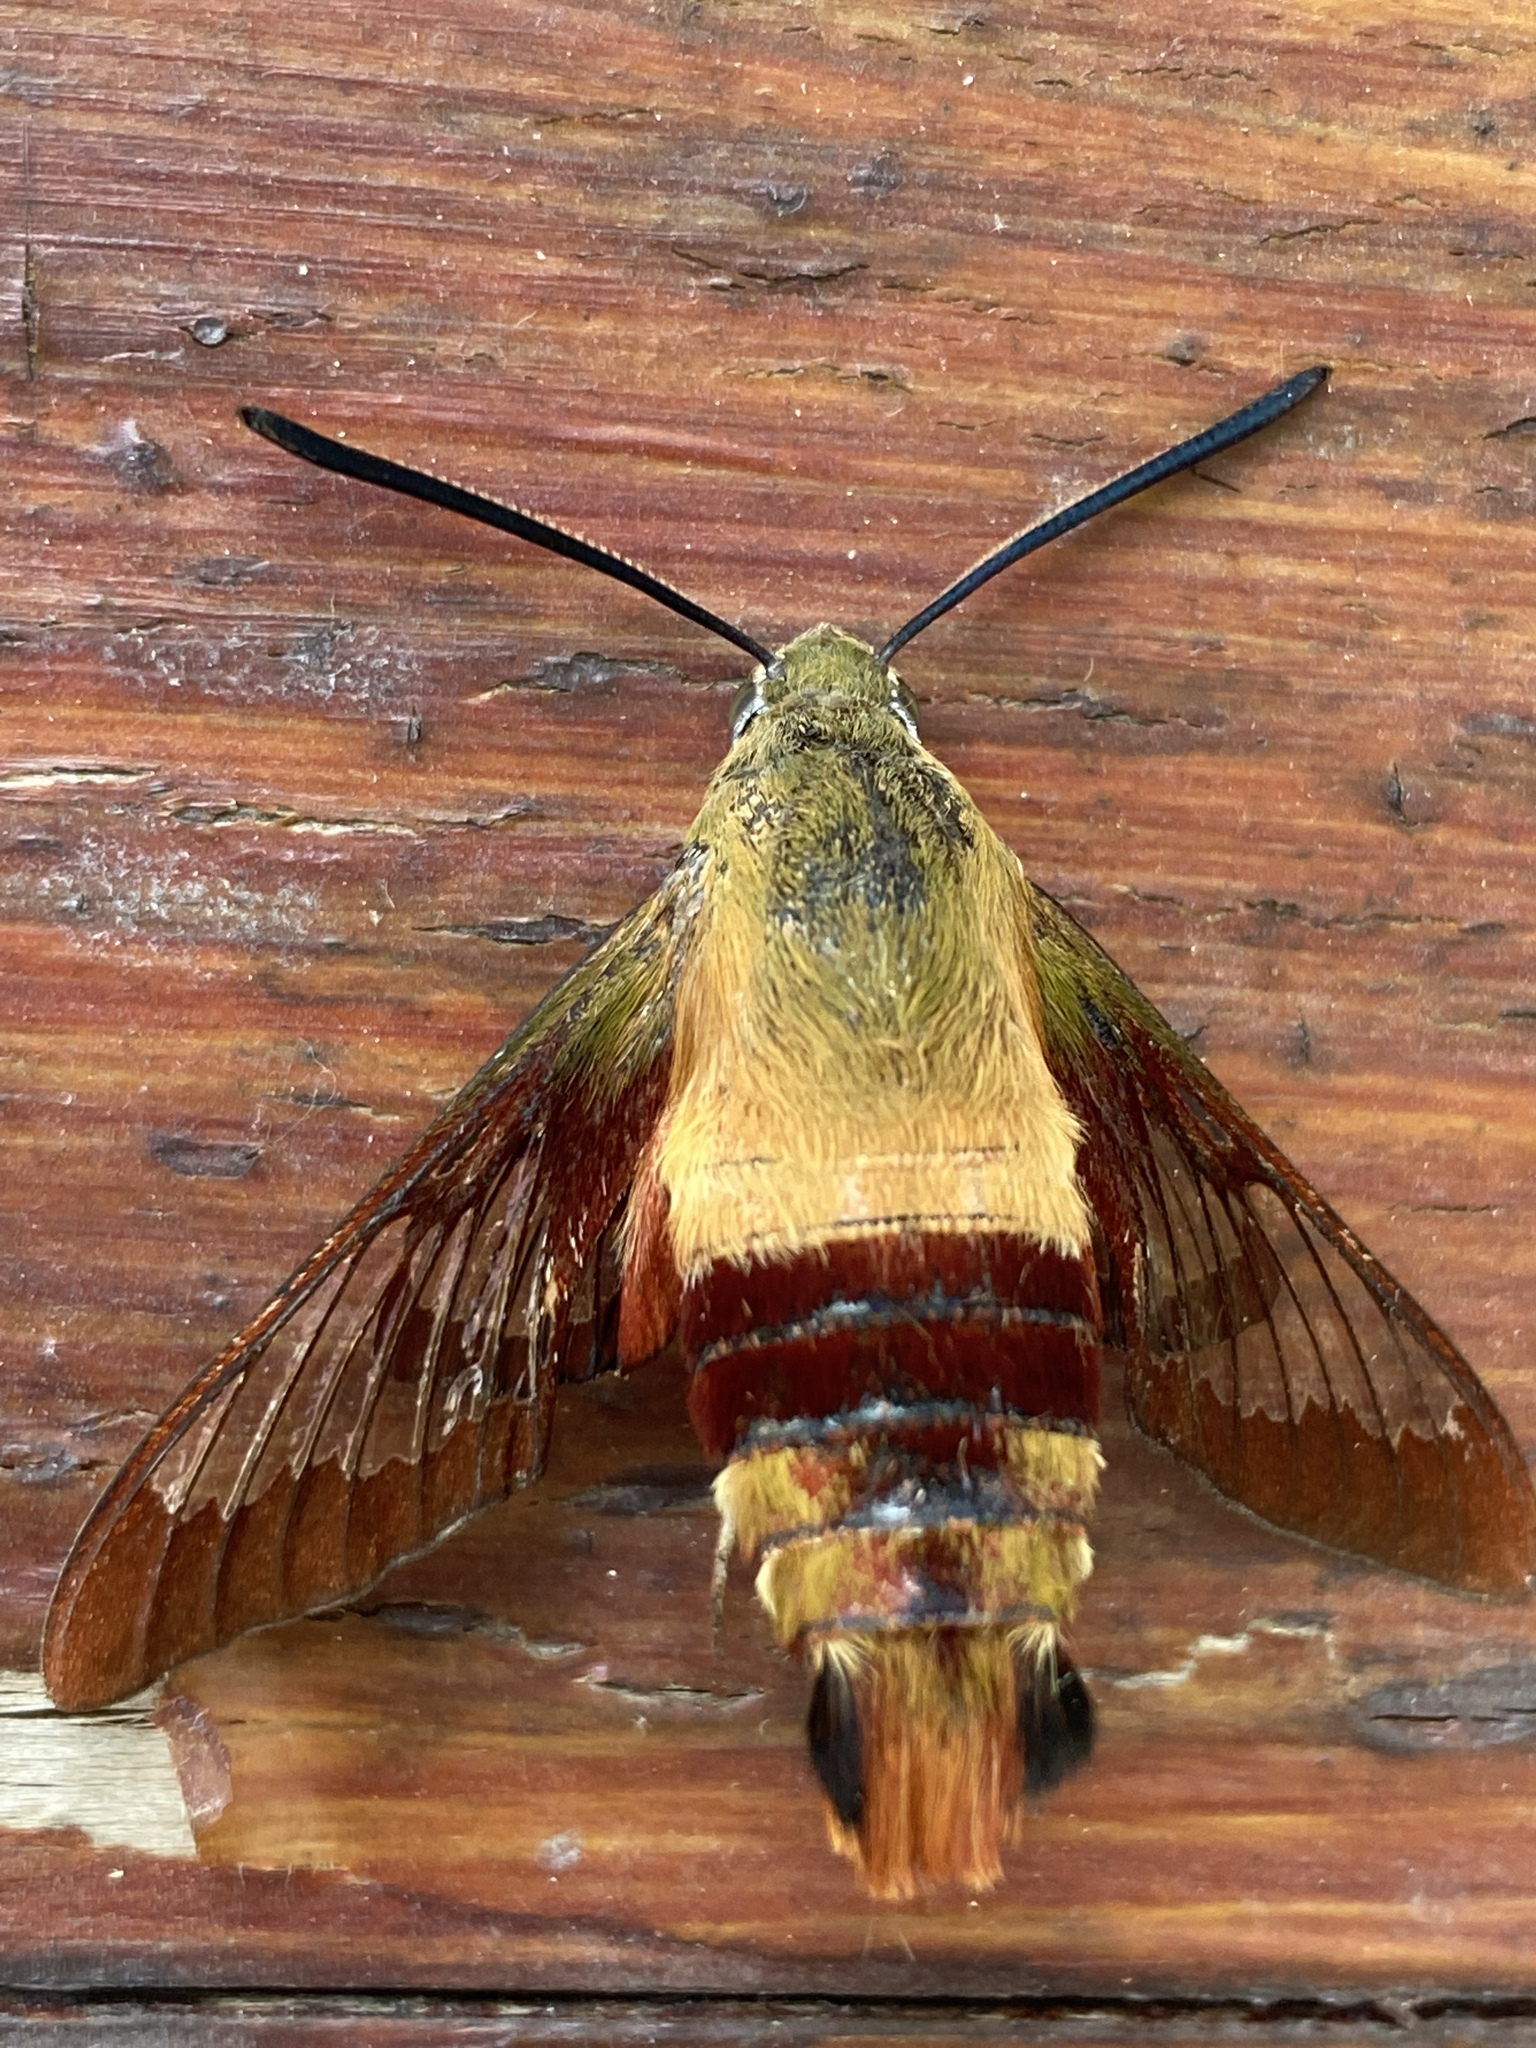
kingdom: Animalia
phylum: Arthropoda
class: Insecta
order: Lepidoptera
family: Sphingidae
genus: Hemaris
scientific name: Hemaris thysbe
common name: Common clear-wing
